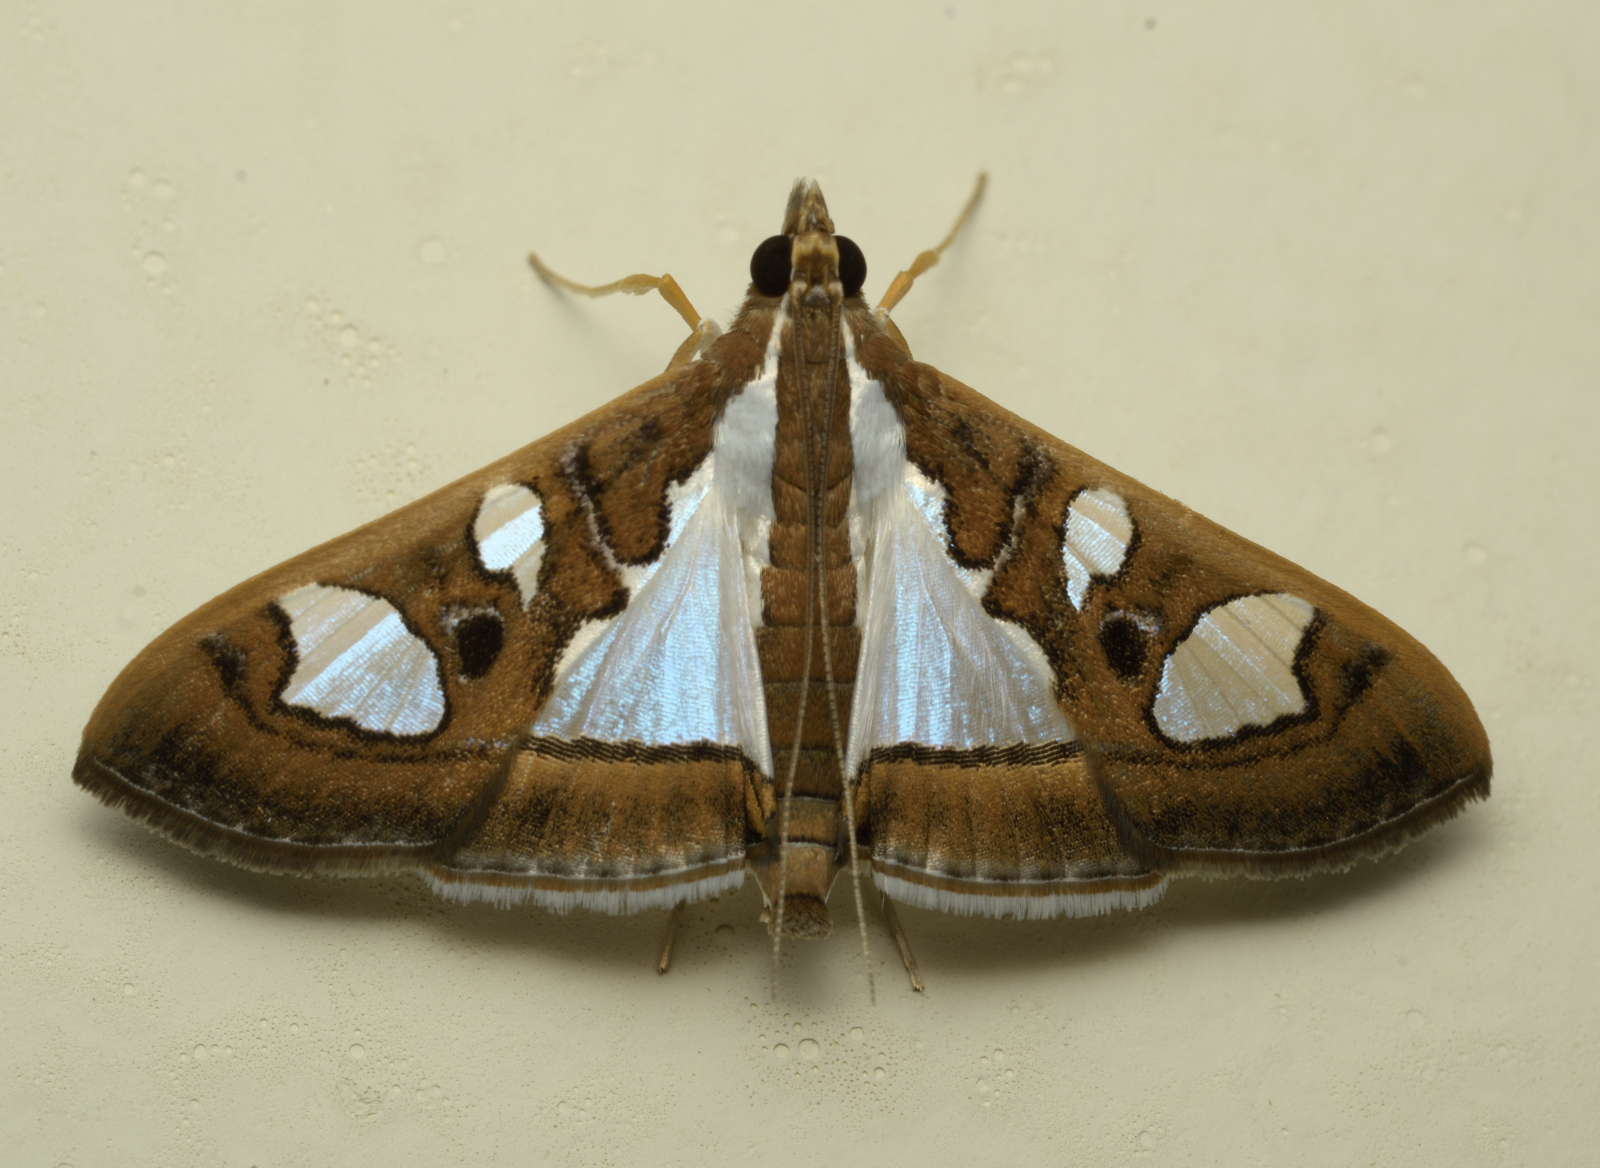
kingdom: Animalia
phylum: Arthropoda
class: Insecta
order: Lepidoptera
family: Crambidae
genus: Glyphodes
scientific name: Glyphodes bivitralis
